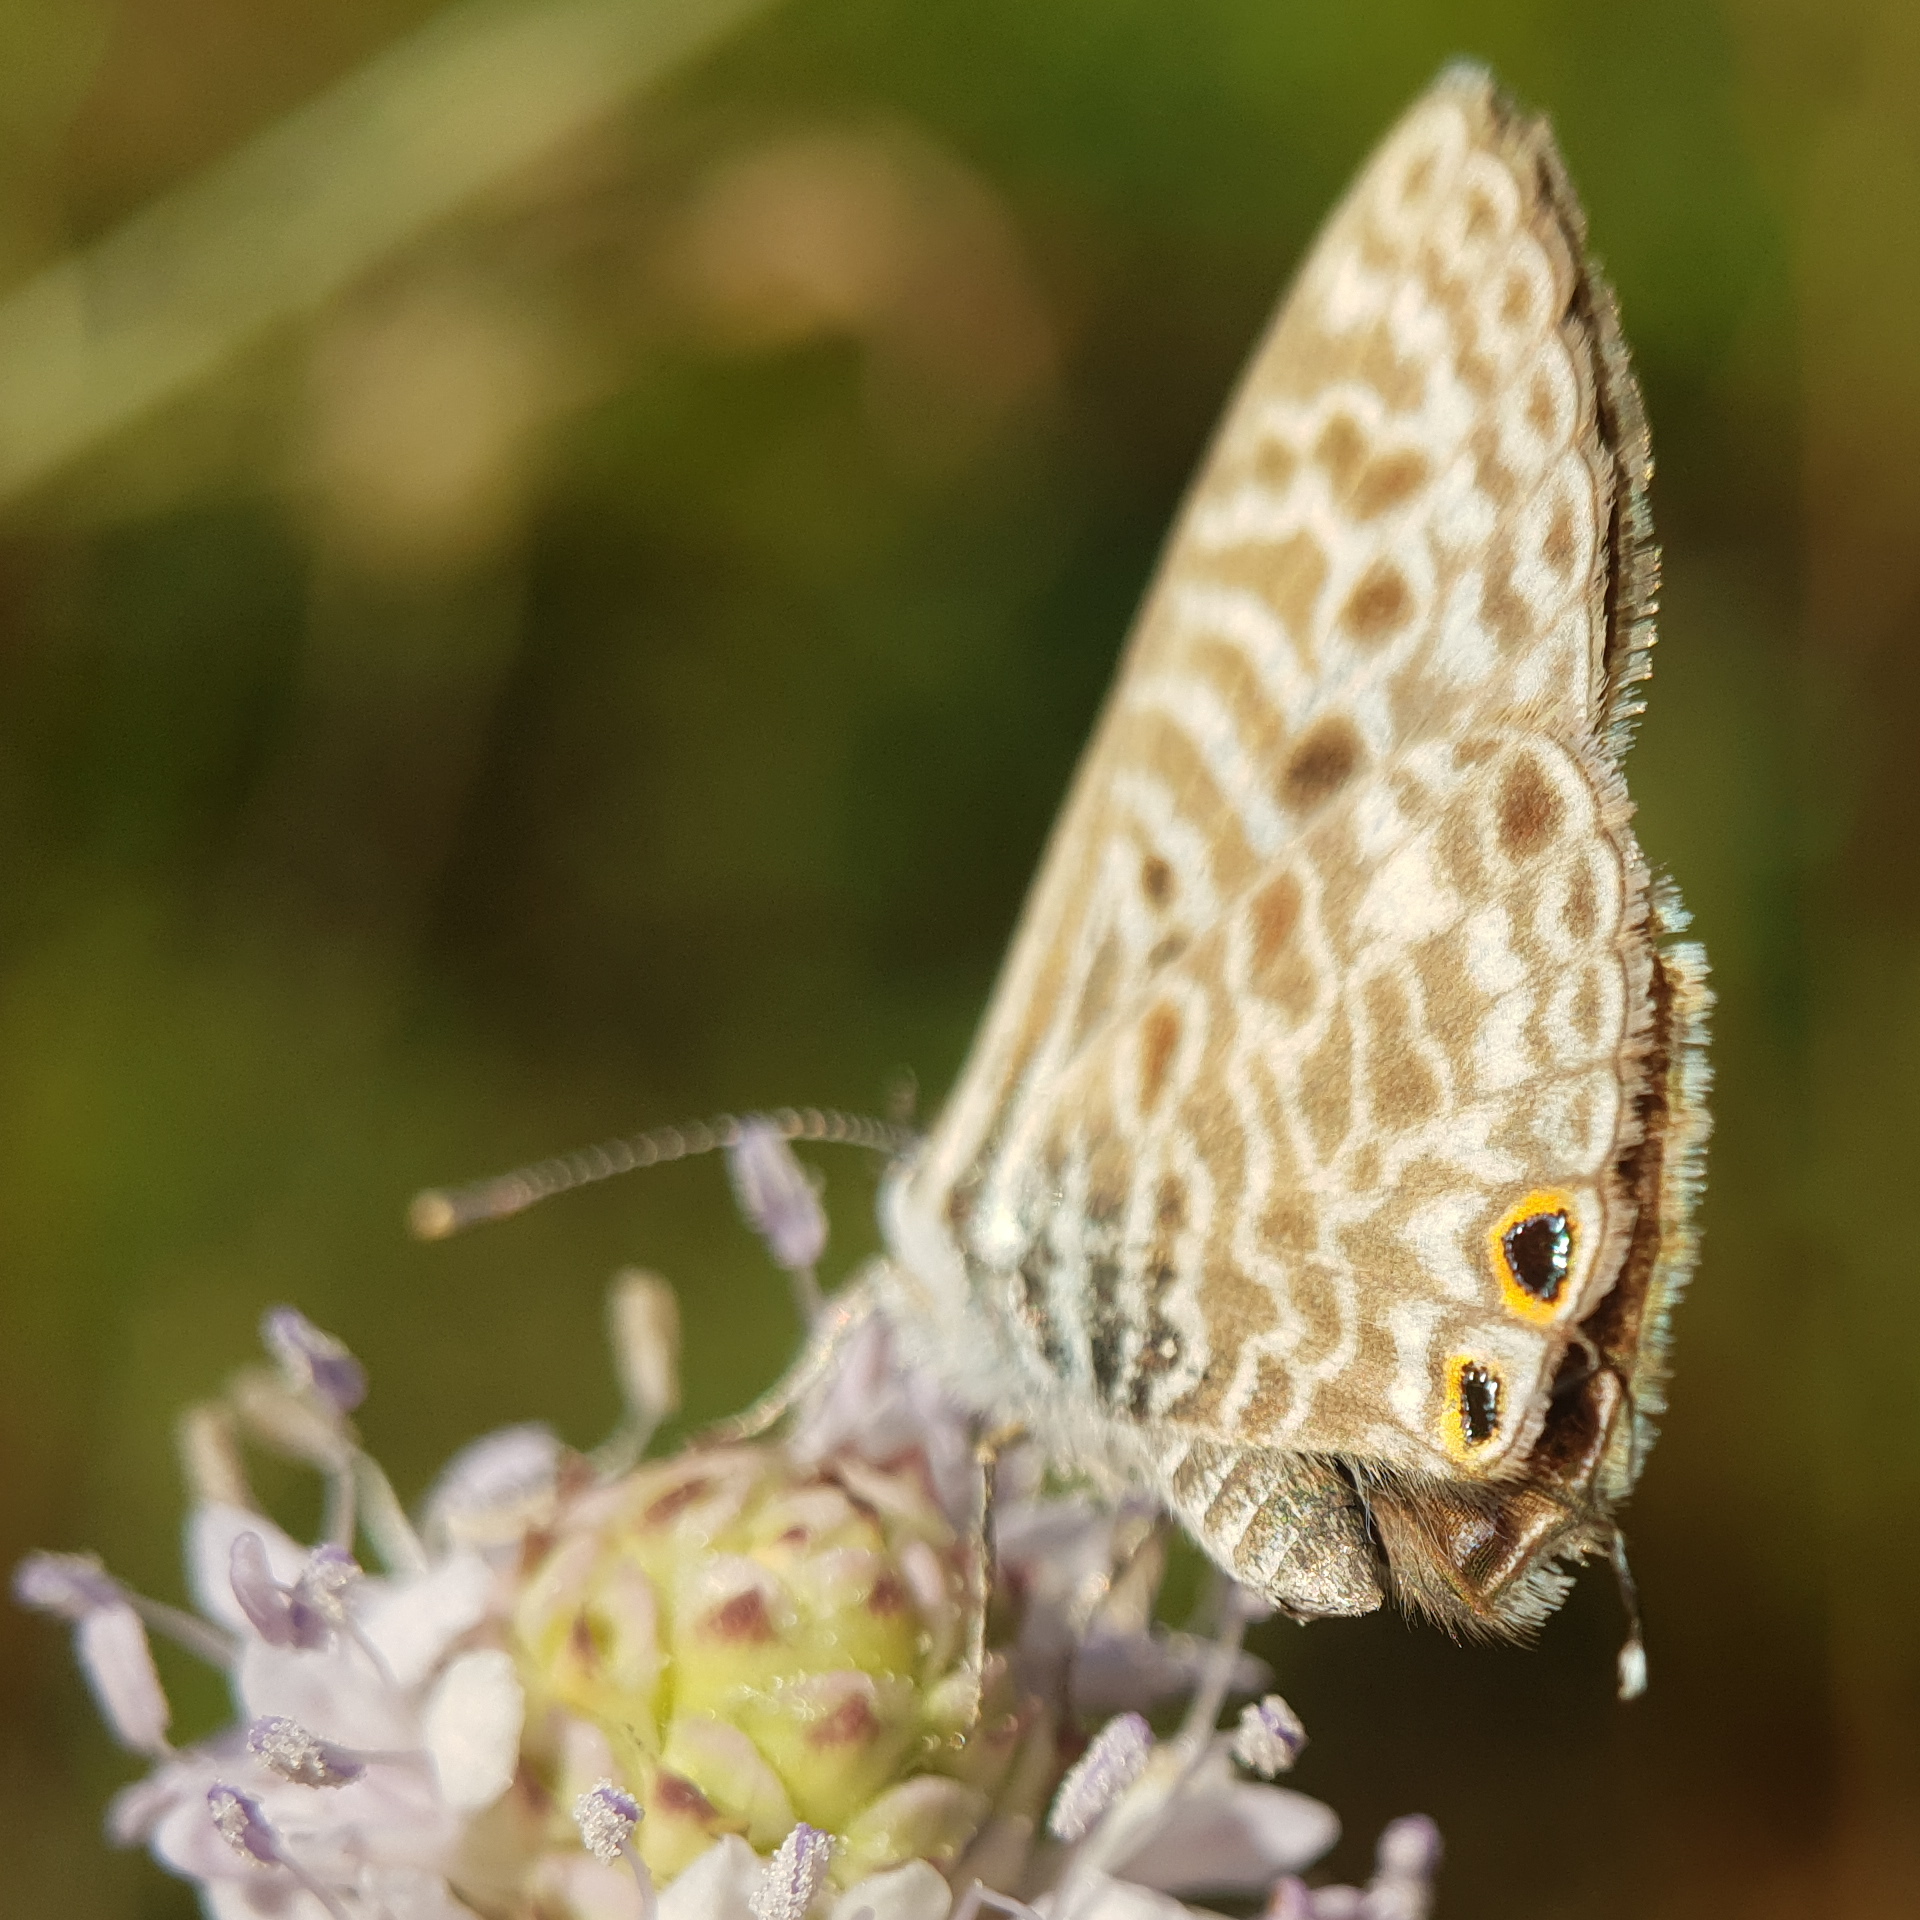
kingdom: Animalia
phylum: Arthropoda
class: Insecta
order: Lepidoptera
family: Lycaenidae
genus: Leptotes
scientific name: Leptotes pirithous
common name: Lang's short-tailed blue
